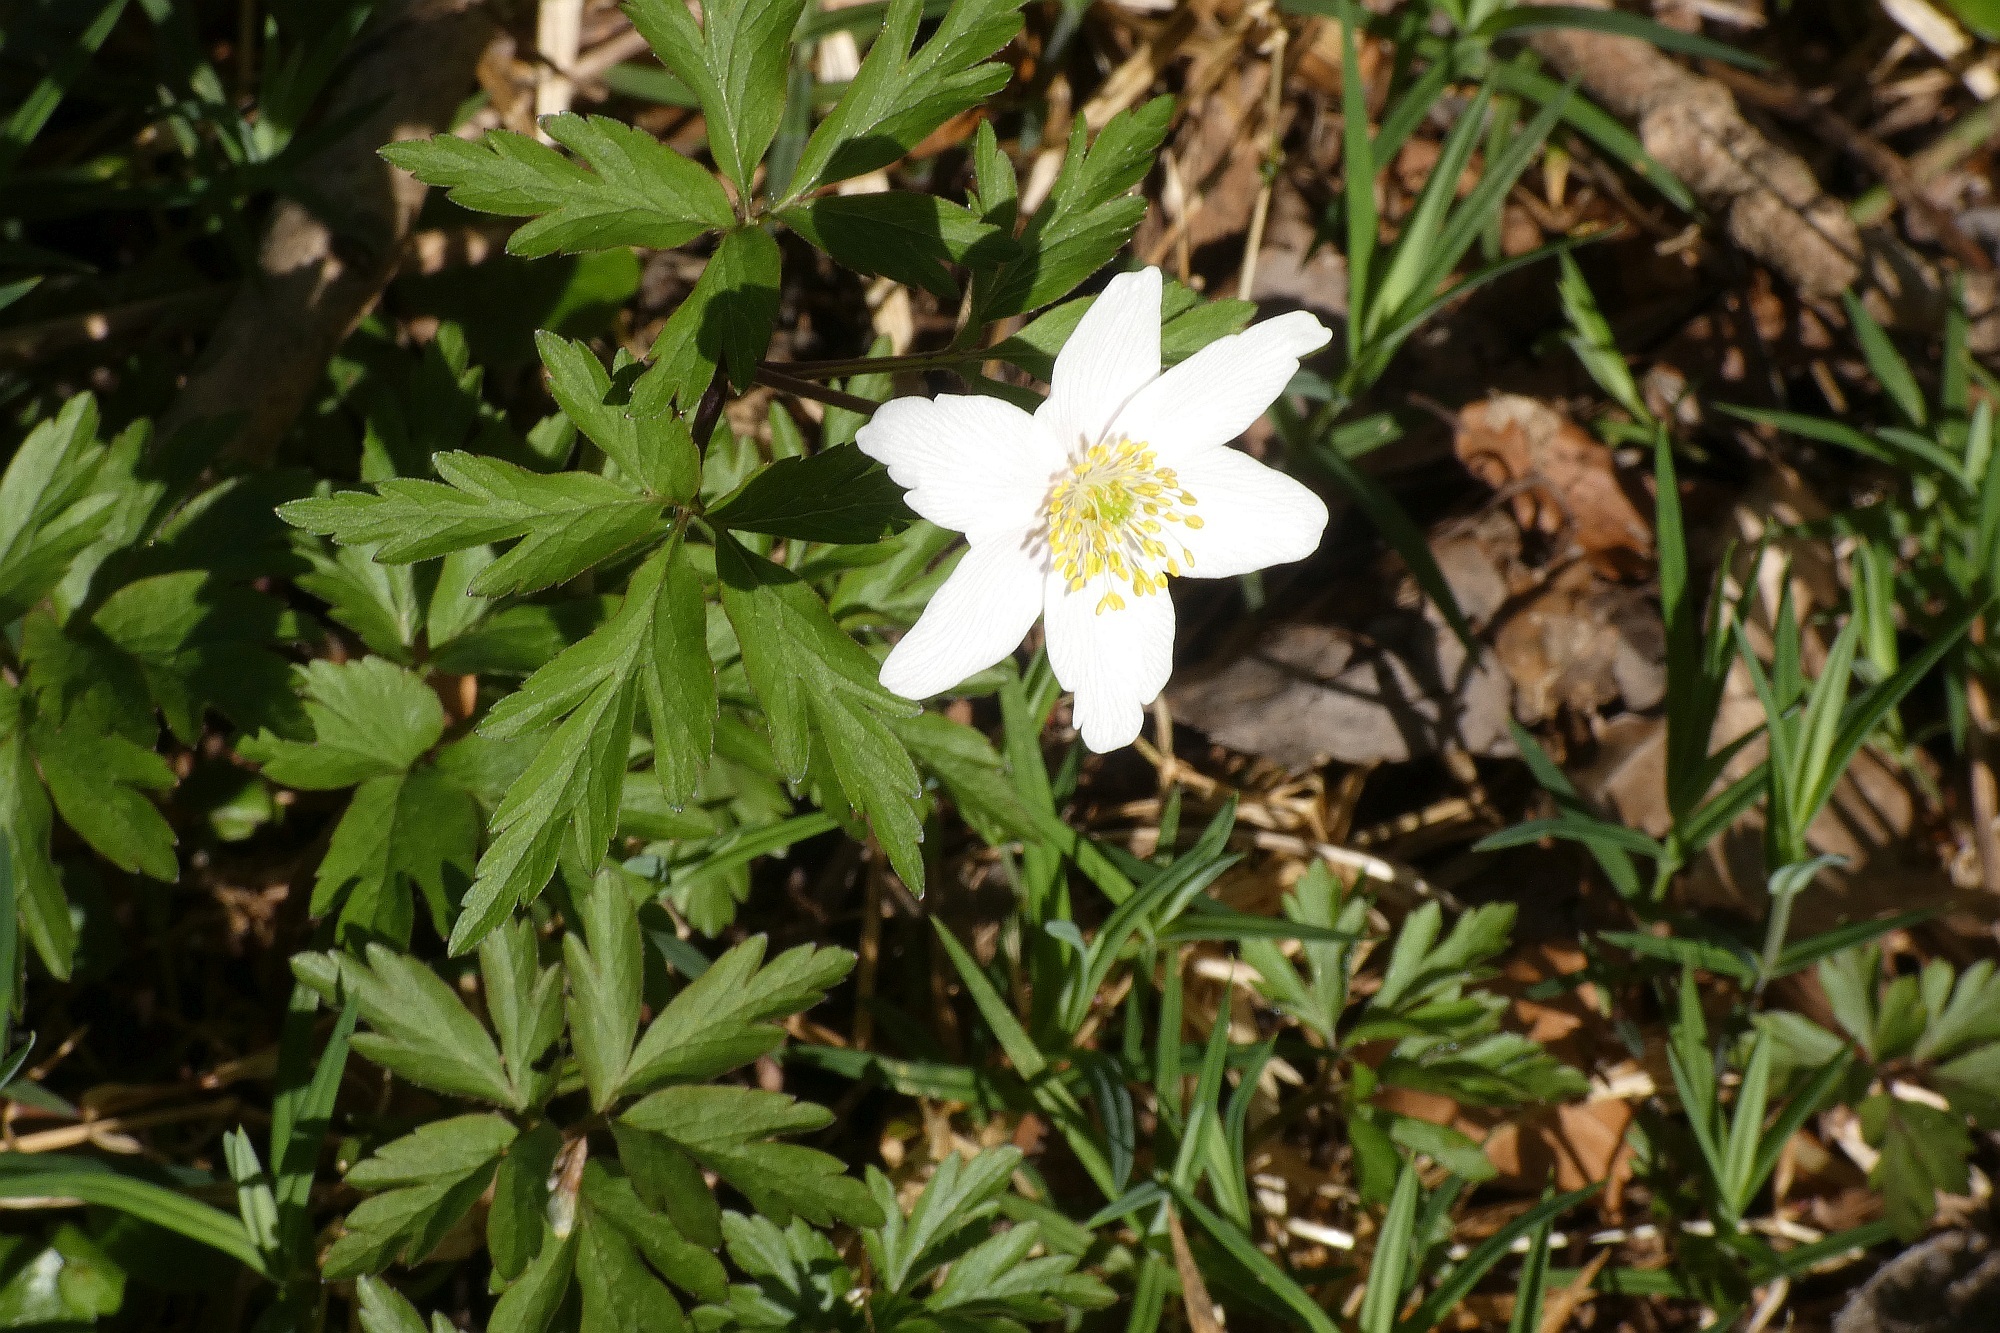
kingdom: Plantae
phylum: Tracheophyta
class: Magnoliopsida
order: Ranunculales
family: Ranunculaceae
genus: Anemone
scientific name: Anemone nemorosa
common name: Wood anemone
